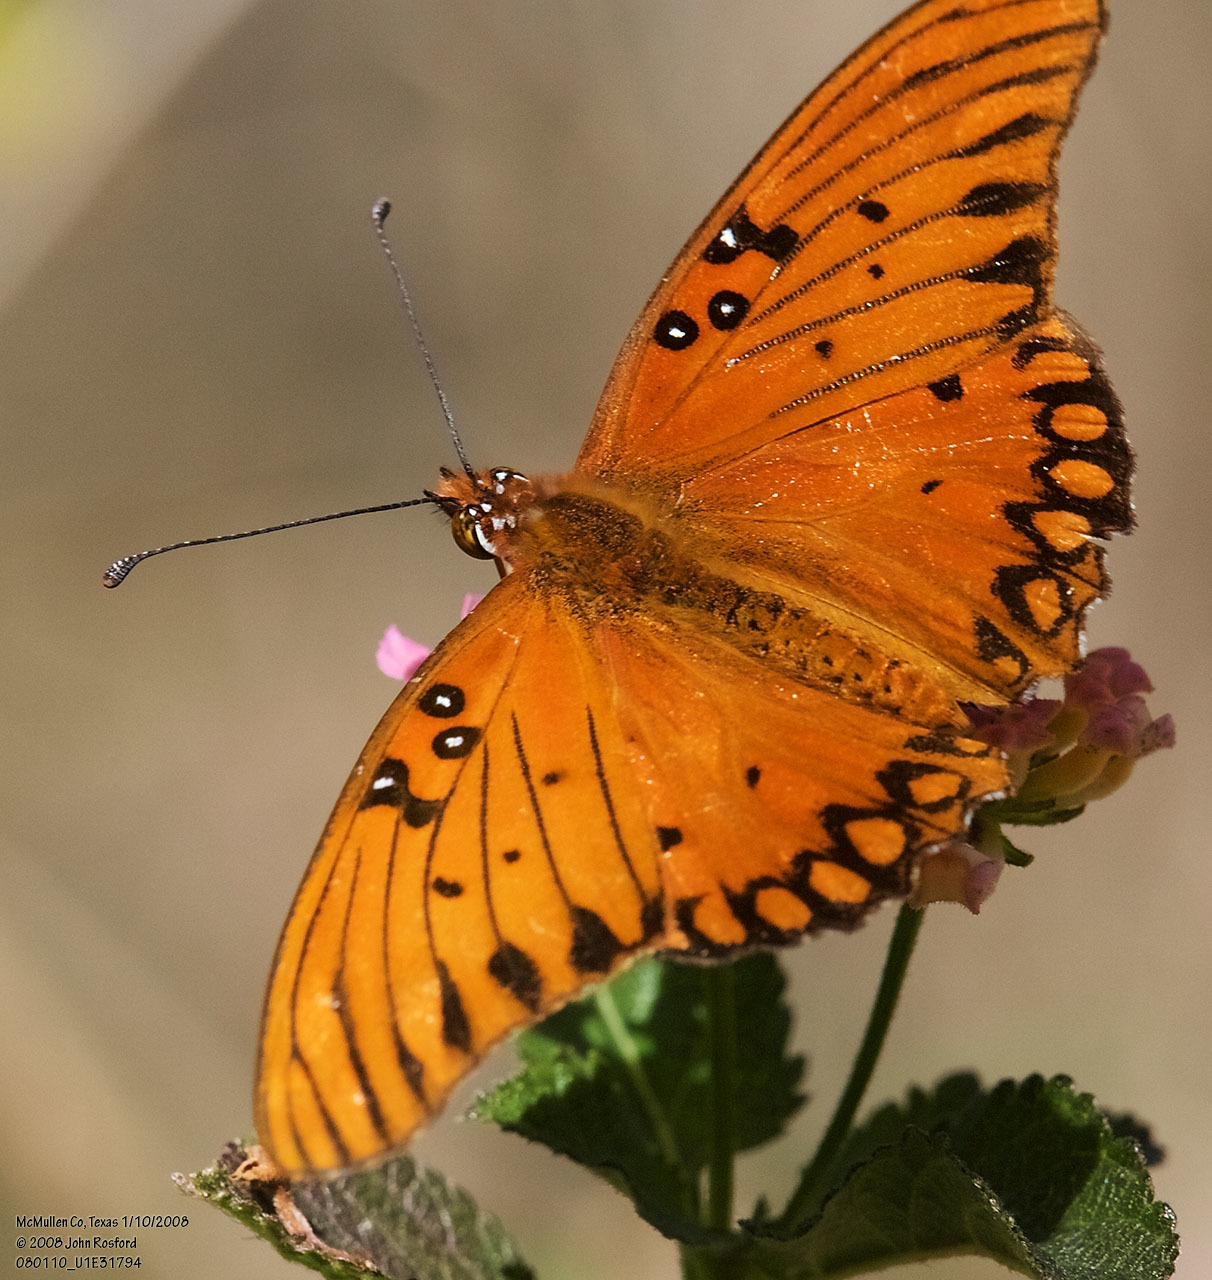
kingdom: Animalia
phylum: Arthropoda
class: Insecta
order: Lepidoptera
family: Nymphalidae
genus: Dione
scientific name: Dione vanillae
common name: Gulf fritillary
